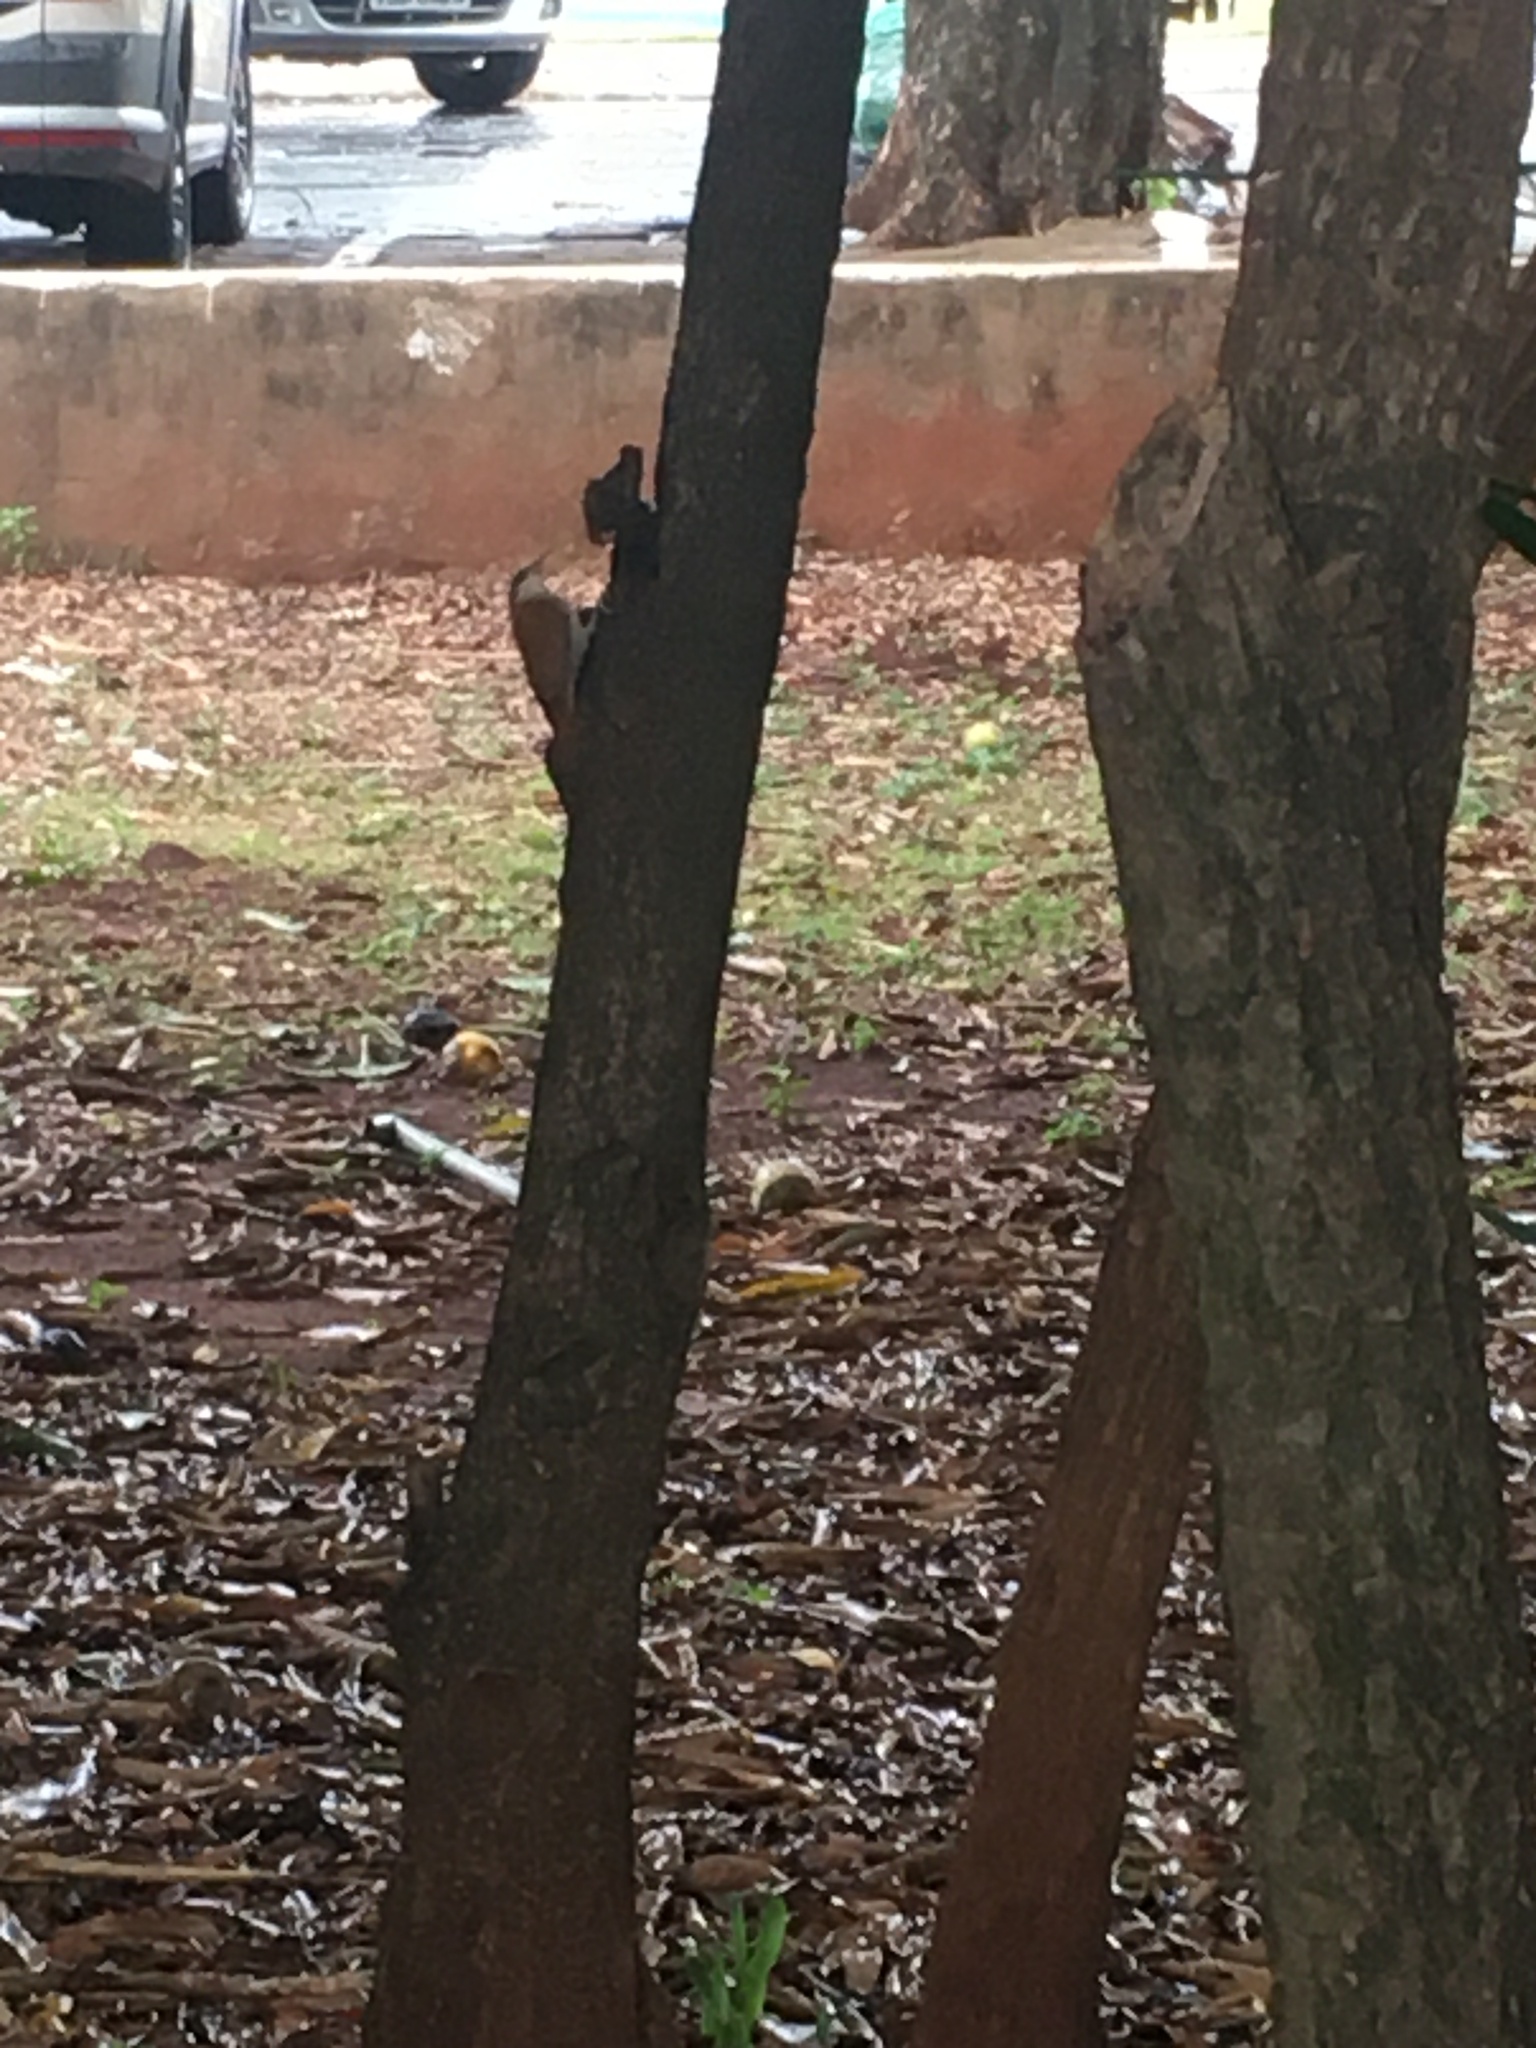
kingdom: Animalia
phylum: Chordata
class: Aves
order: Passeriformes
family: Furnariidae
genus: Lepidocolaptes
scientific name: Lepidocolaptes angustirostris
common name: Narrow-billed woodcreeper
